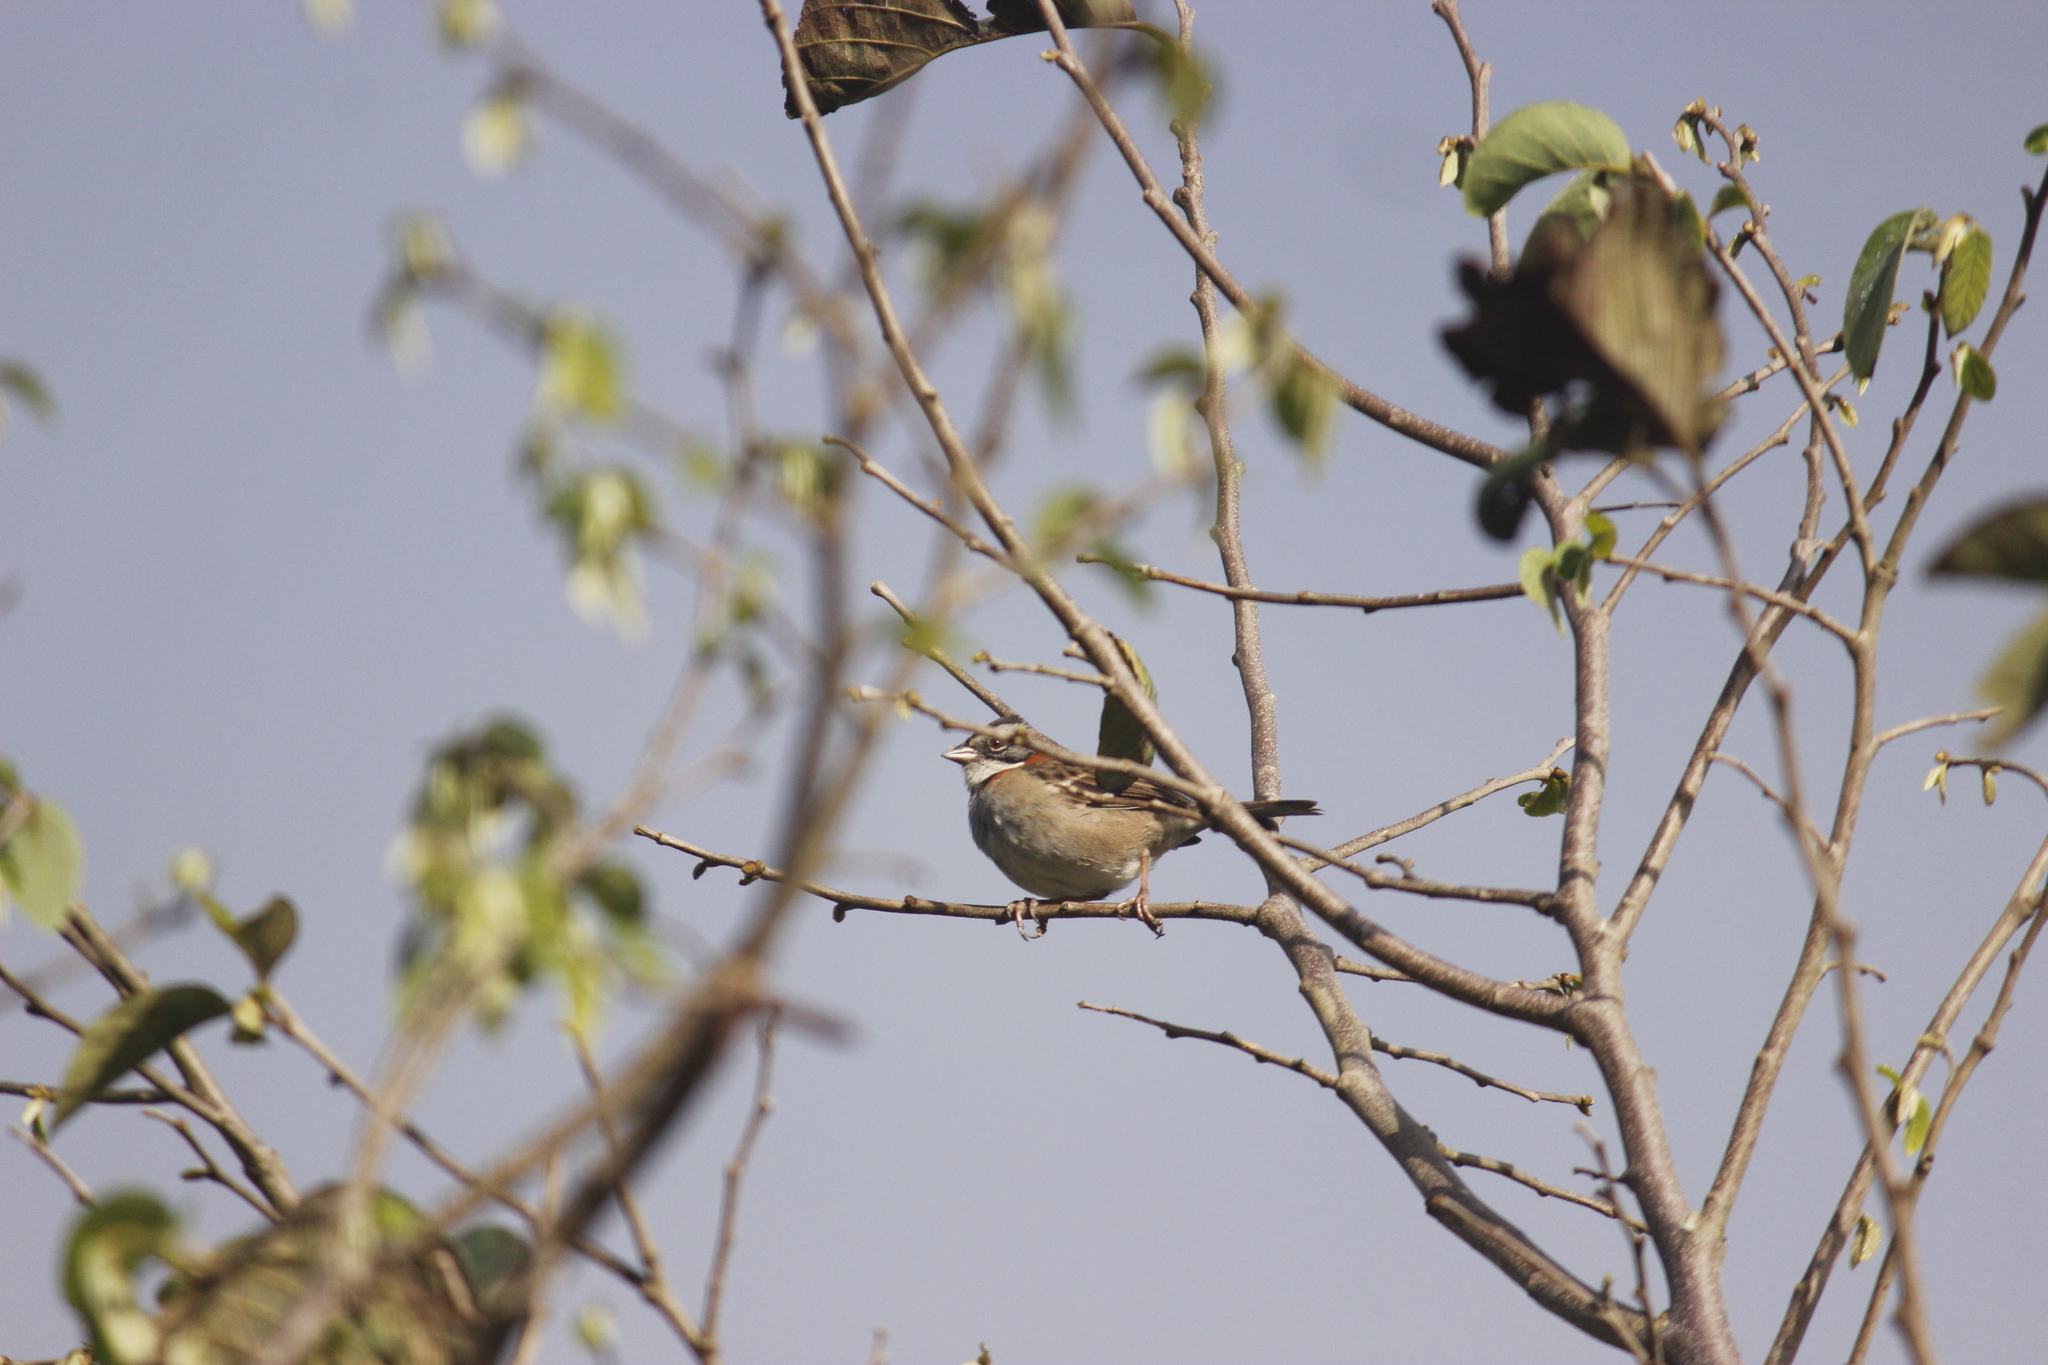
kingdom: Animalia
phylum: Chordata
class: Aves
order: Passeriformes
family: Passerellidae
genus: Zonotrichia
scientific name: Zonotrichia capensis
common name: Rufous-collared sparrow
